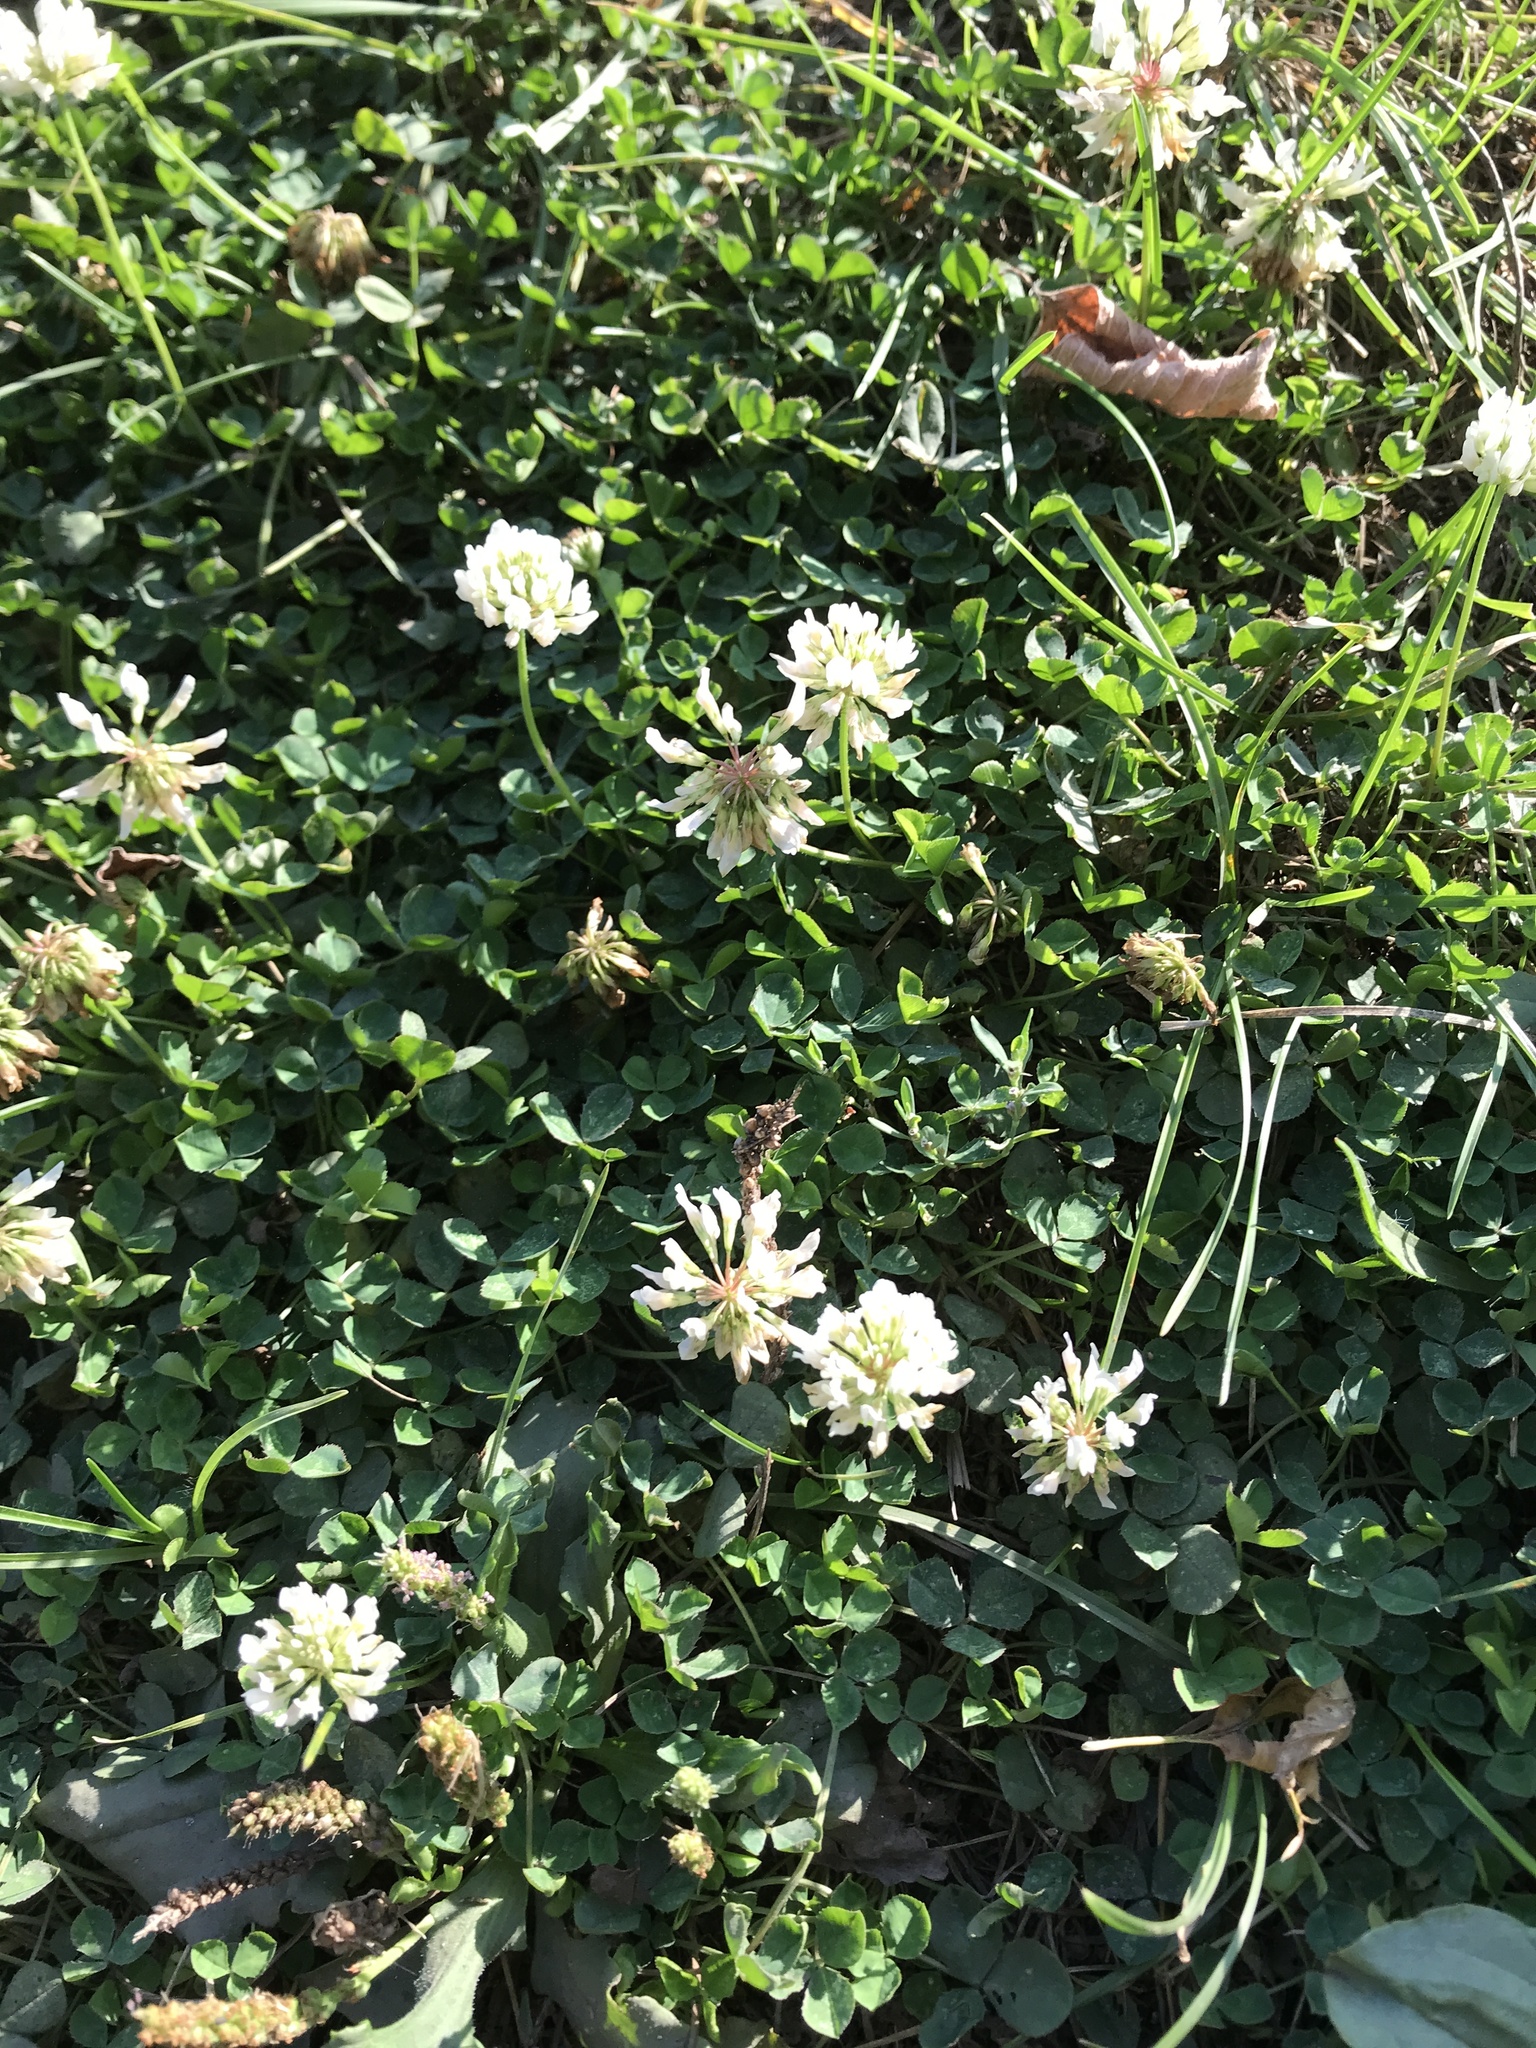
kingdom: Plantae
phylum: Tracheophyta
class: Magnoliopsida
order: Fabales
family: Fabaceae
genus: Trifolium
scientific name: Trifolium repens
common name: White clover
